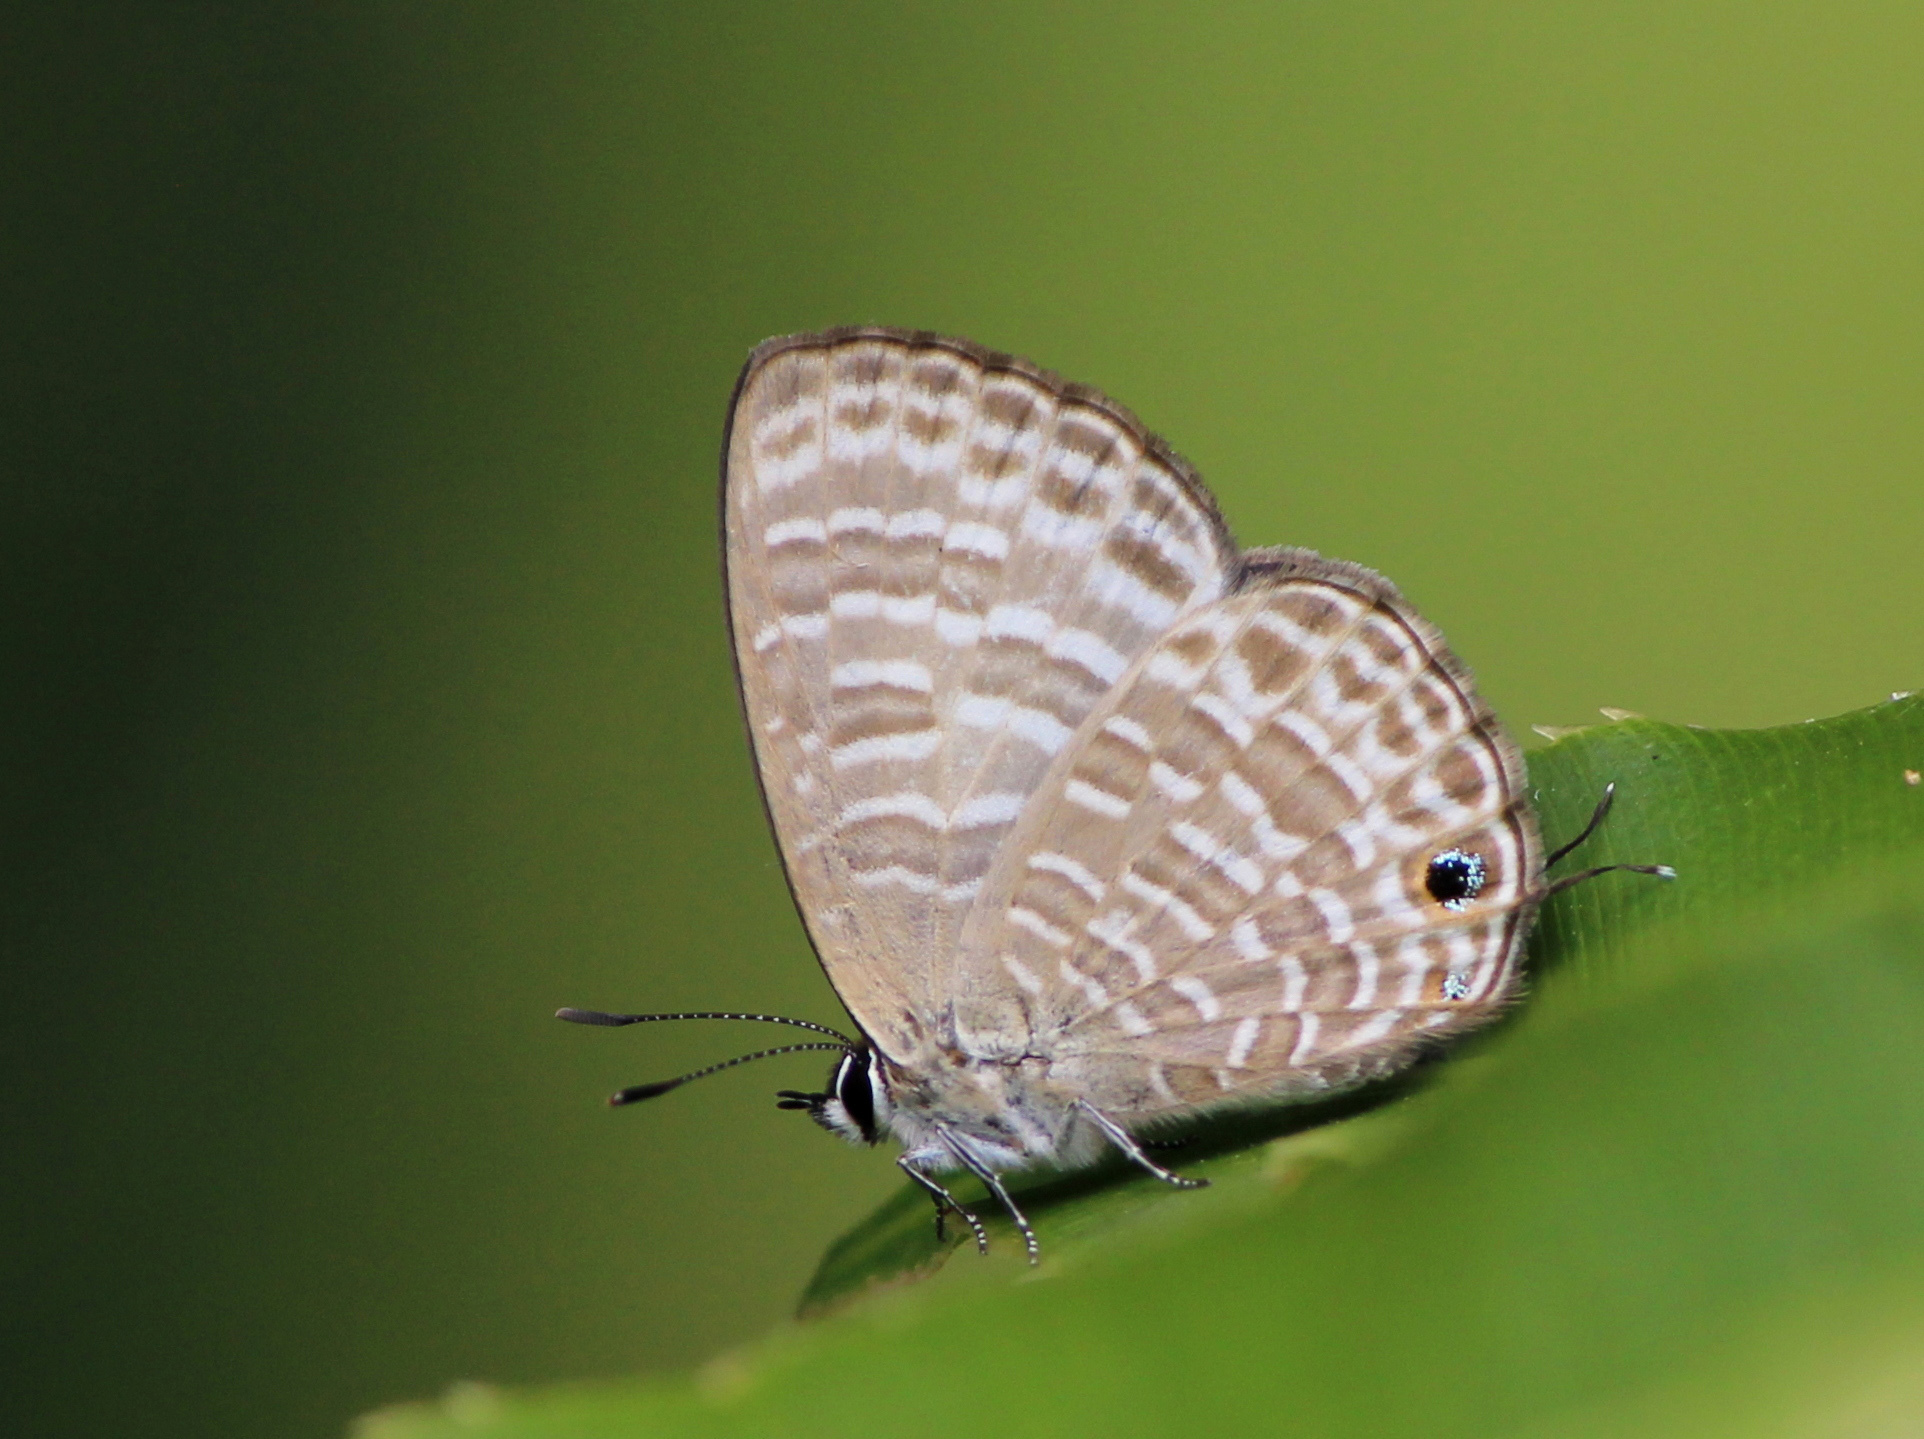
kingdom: Animalia
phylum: Arthropoda
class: Insecta
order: Lepidoptera
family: Lycaenidae
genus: Nacaduba
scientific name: Nacaduba kurava
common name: Transparent 6-line blue
